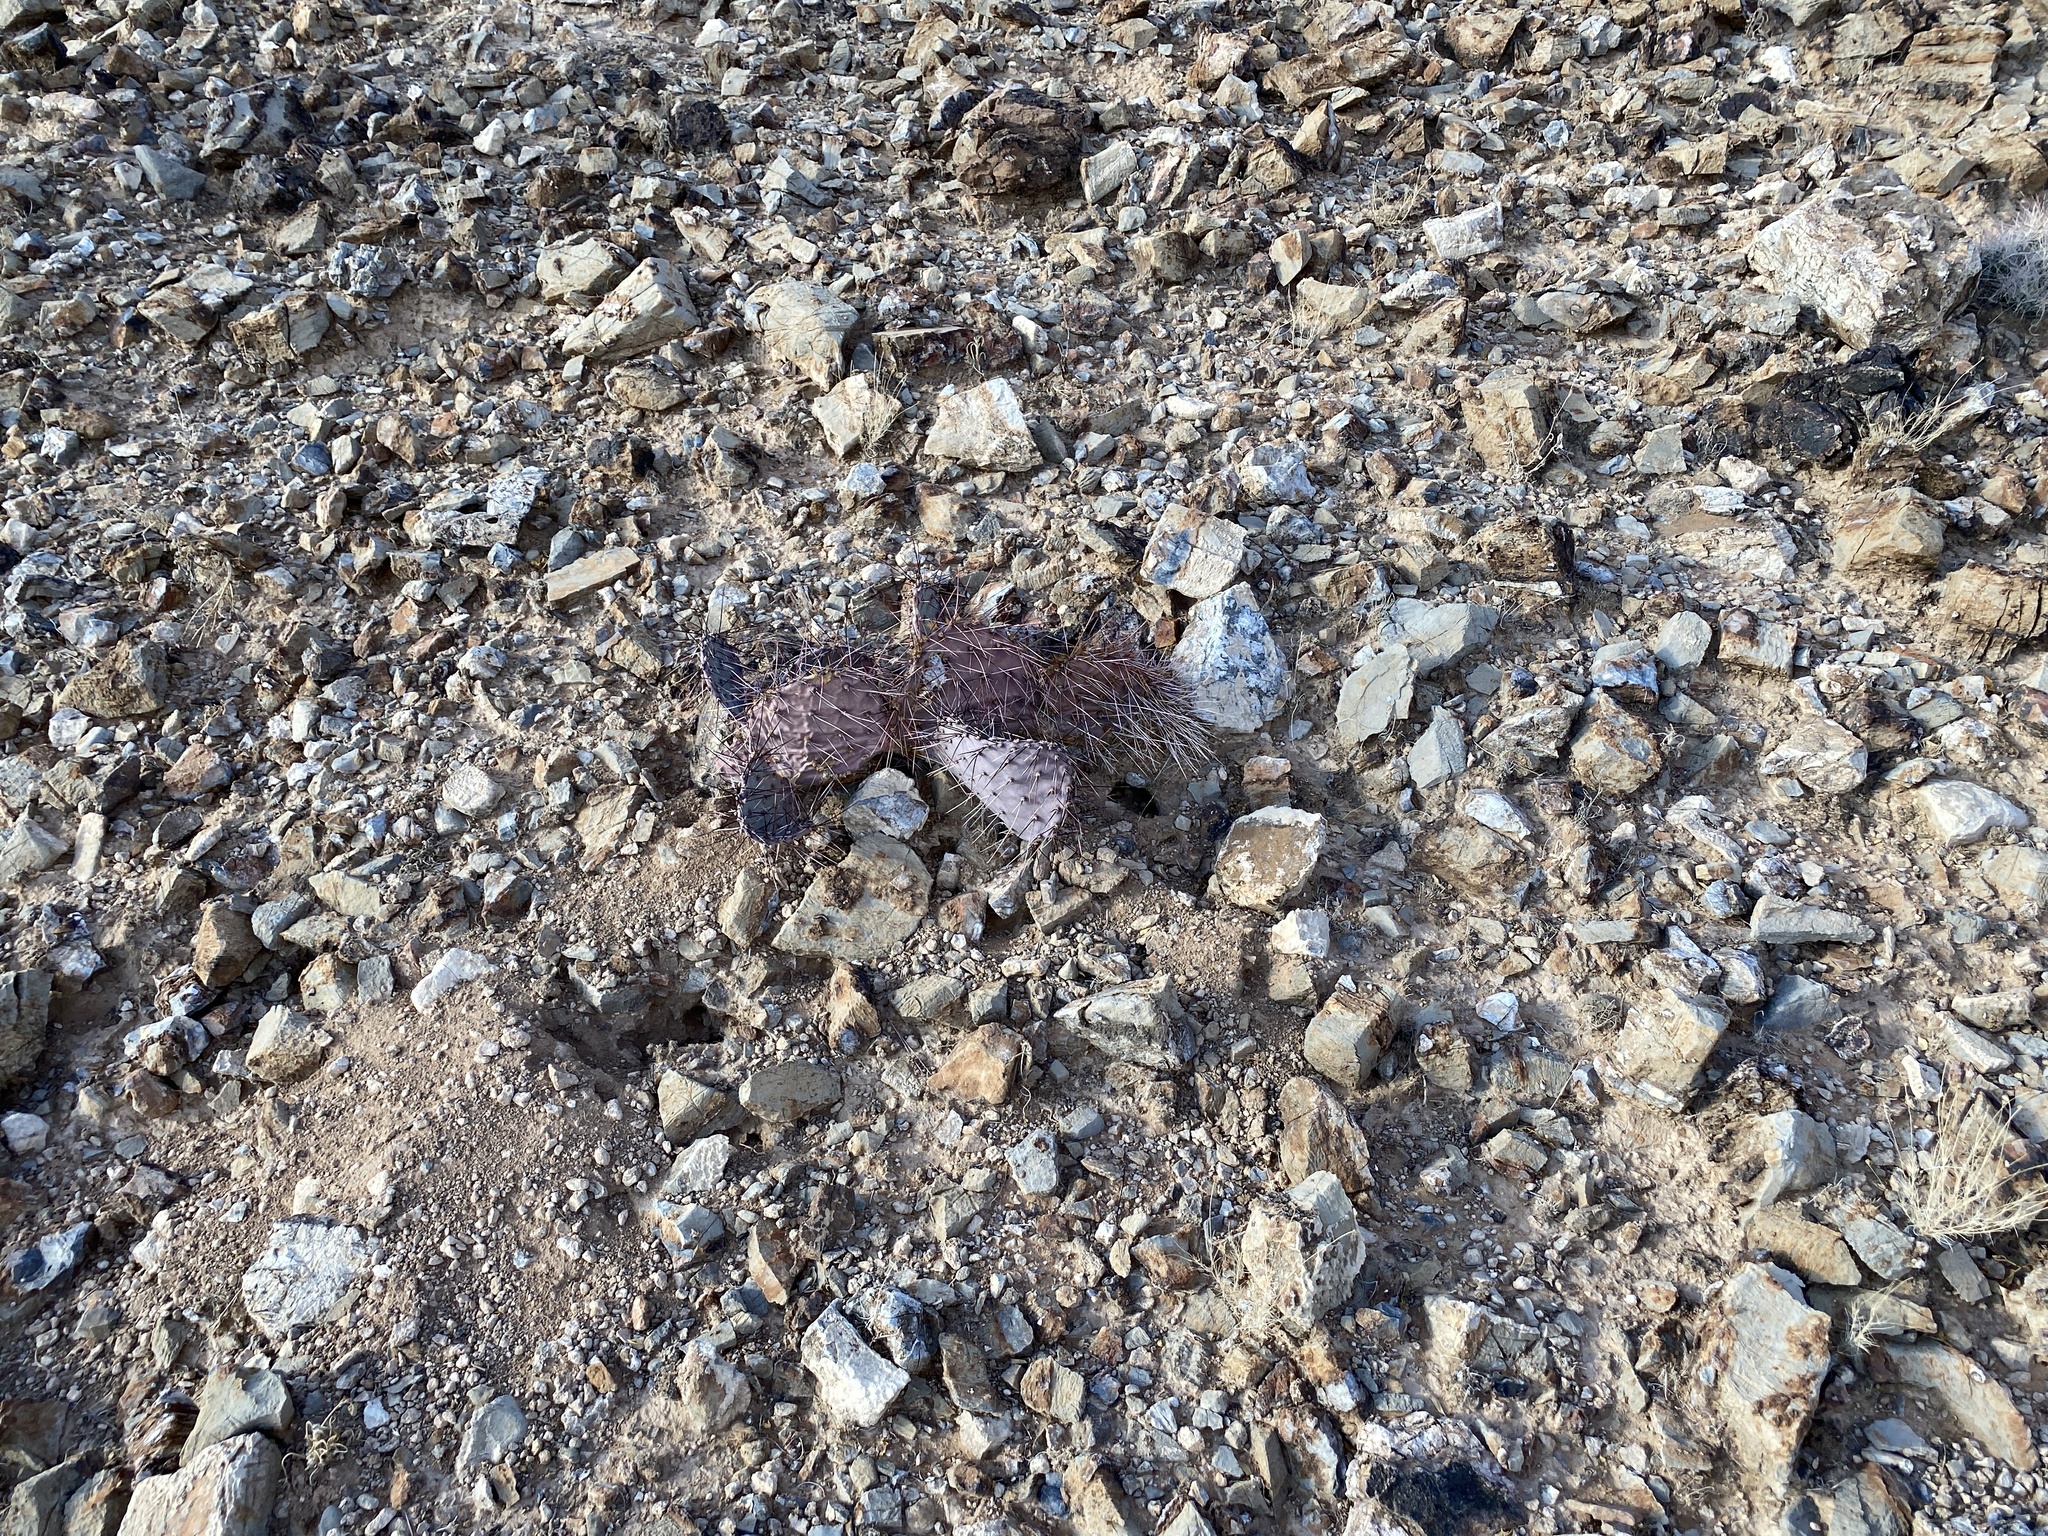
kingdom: Plantae
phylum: Tracheophyta
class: Magnoliopsida
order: Caryophyllales
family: Cactaceae
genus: Opuntia
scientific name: Opuntia macrocentra
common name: Purple prickly-pear
